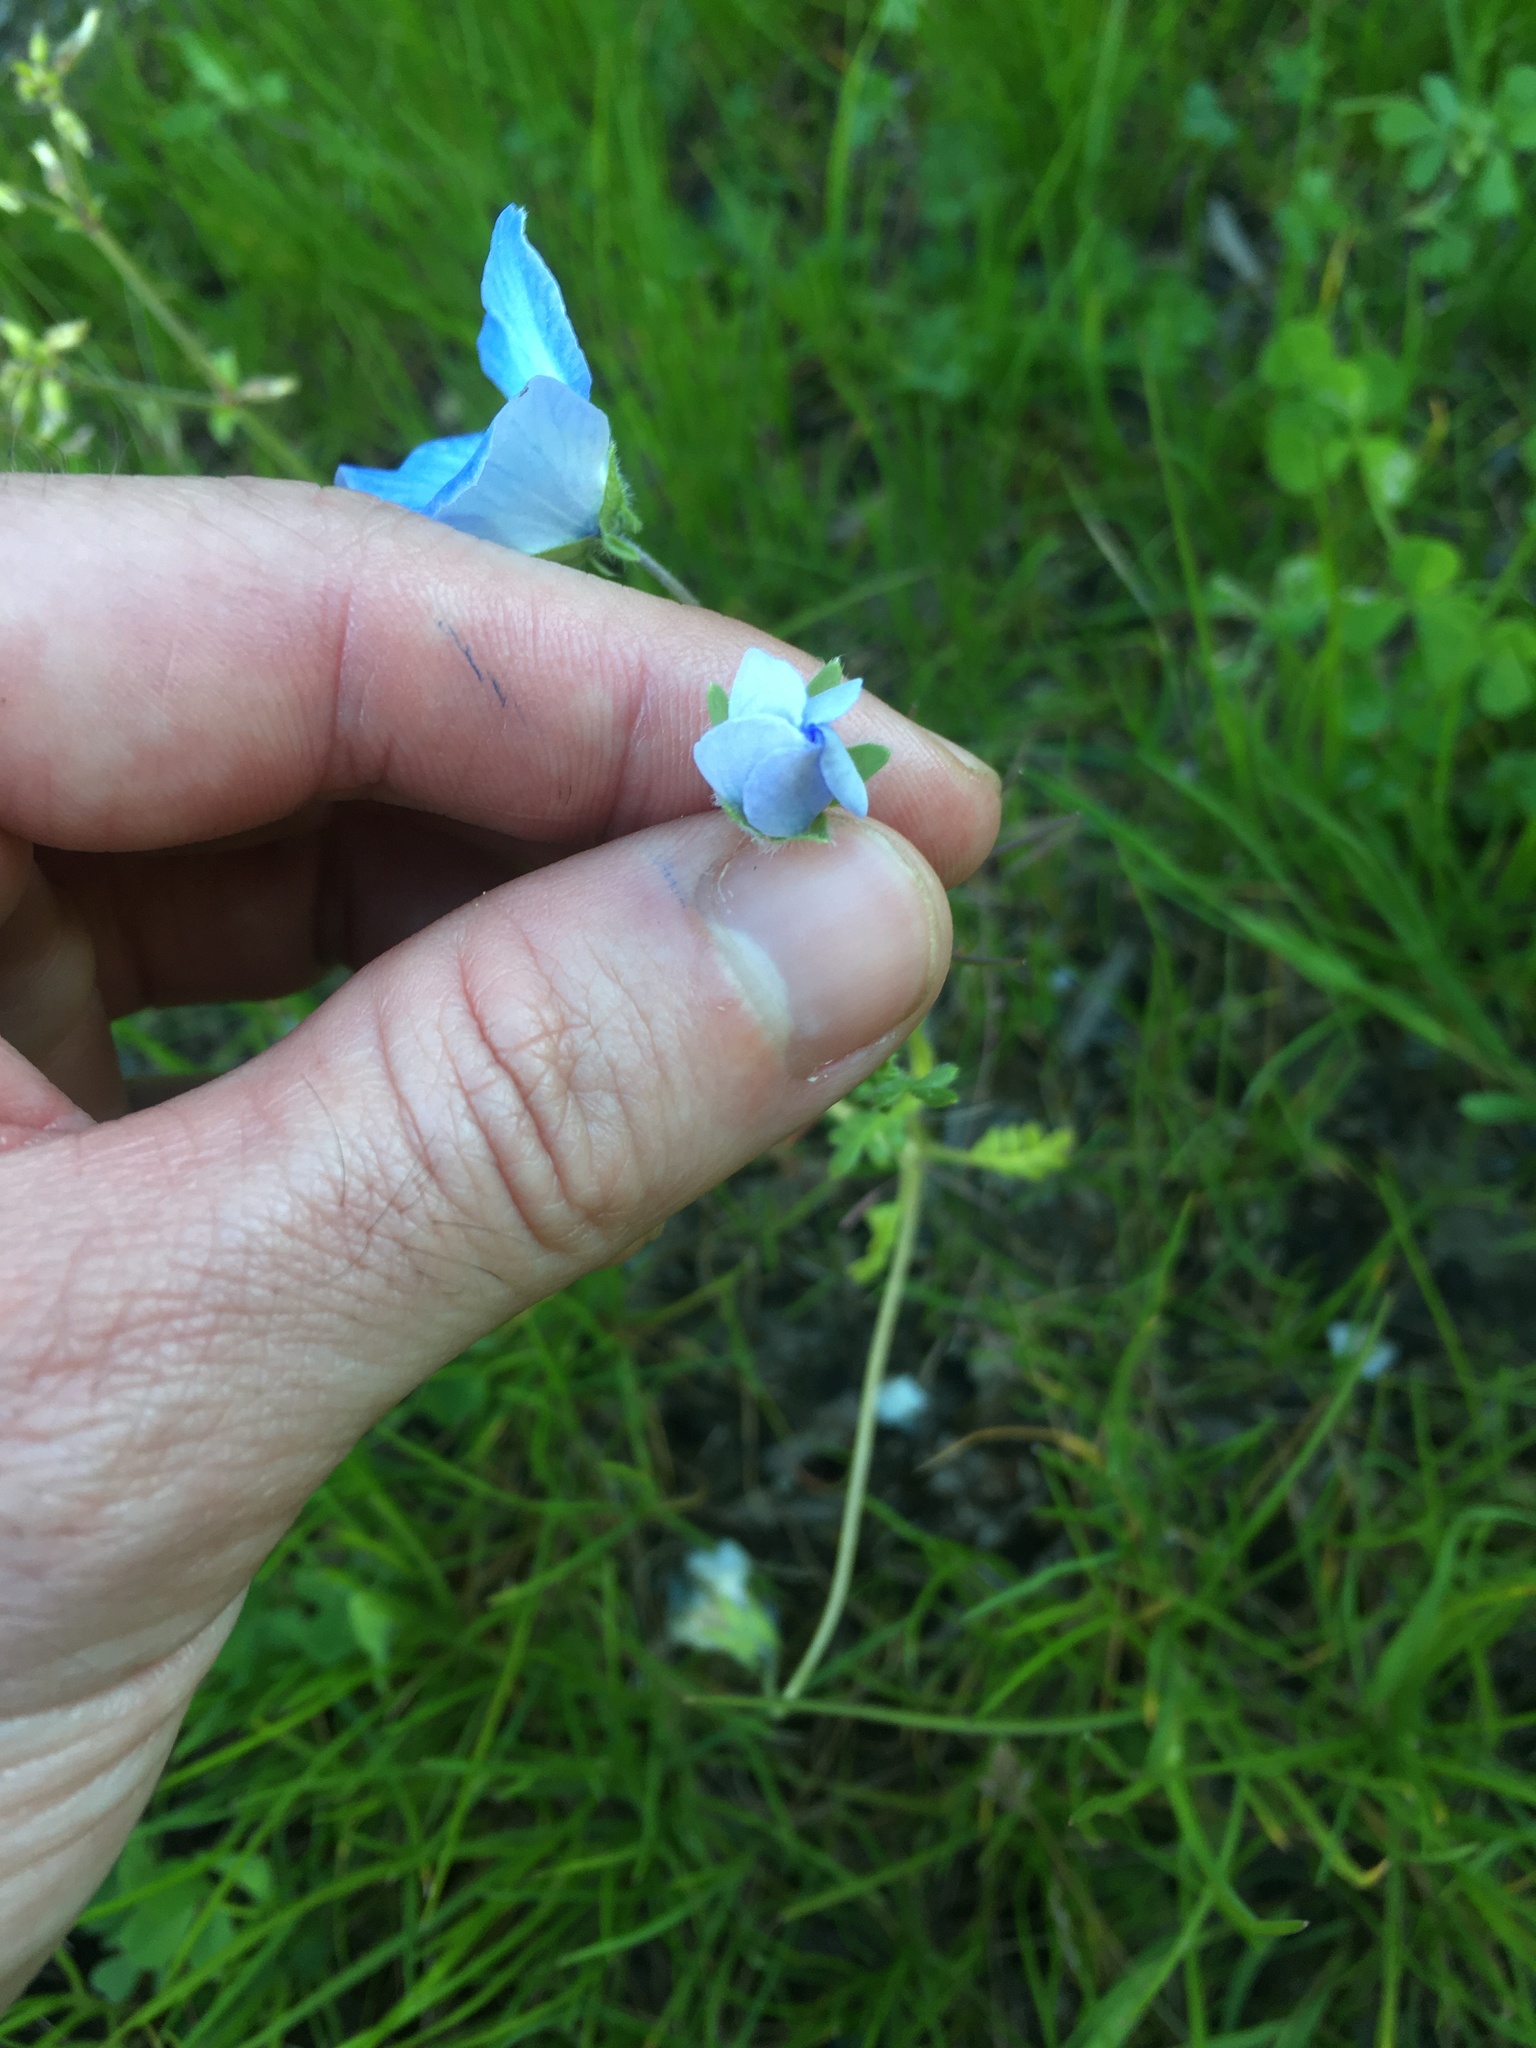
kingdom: Plantae
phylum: Tracheophyta
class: Magnoliopsida
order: Boraginales
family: Hydrophyllaceae
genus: Nemophila
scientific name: Nemophila menziesii
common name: Baby's-blue-eyes
